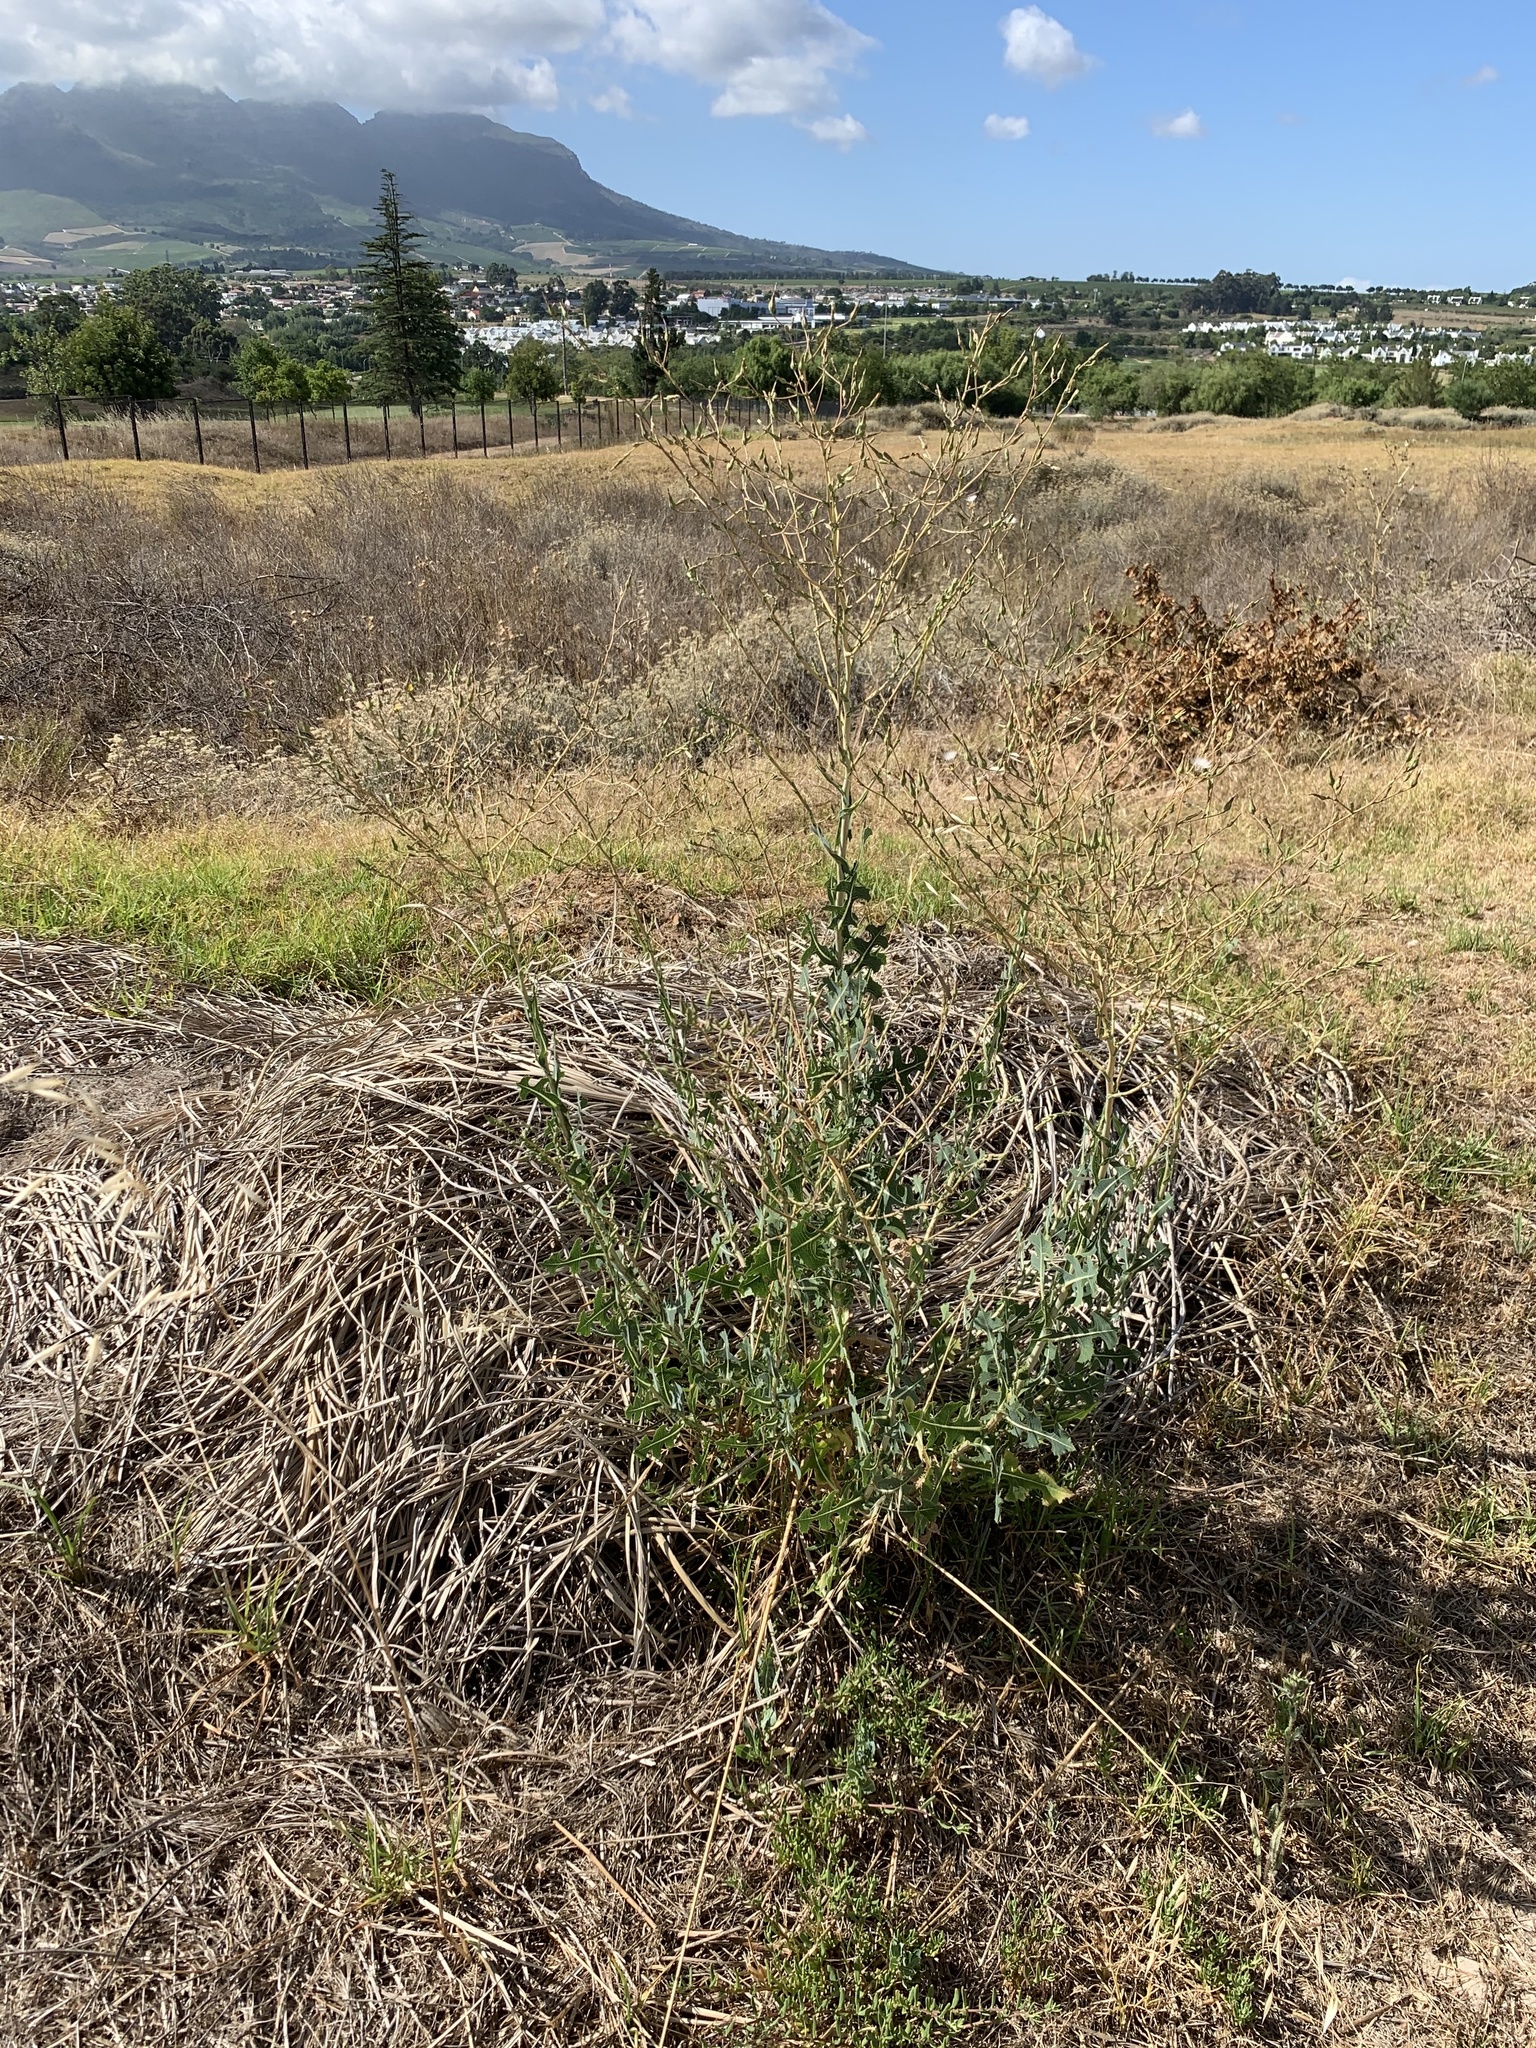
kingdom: Plantae
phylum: Tracheophyta
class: Magnoliopsida
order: Asterales
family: Asteraceae
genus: Lactuca
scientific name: Lactuca serriola
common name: Prickly lettuce
